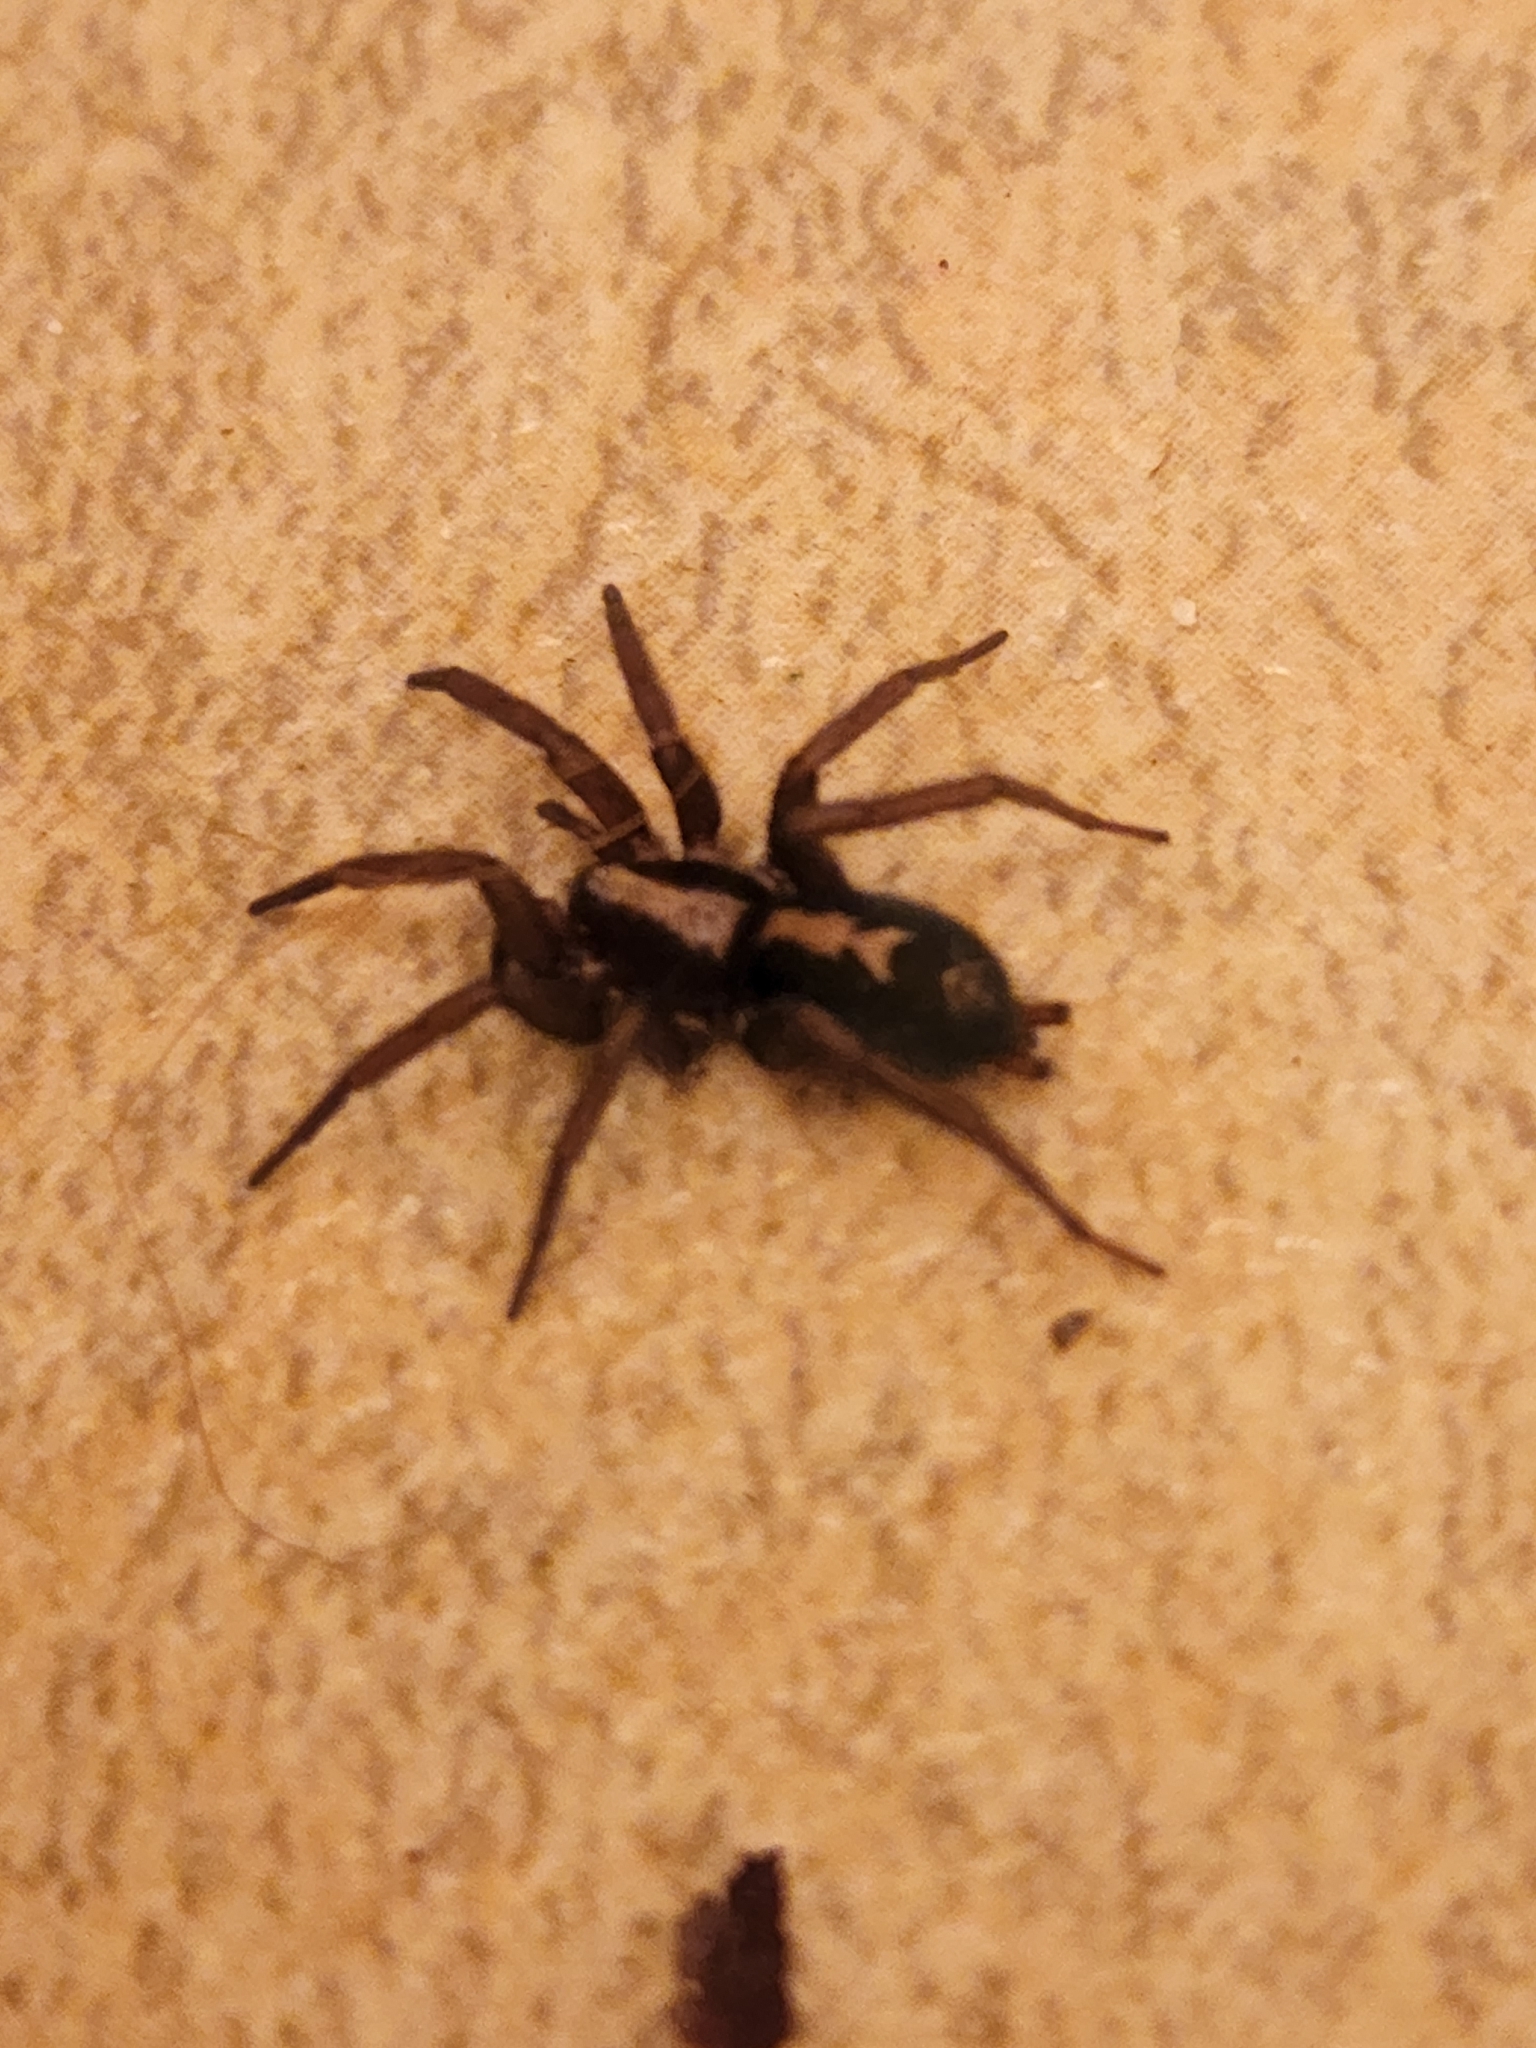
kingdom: Animalia
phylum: Arthropoda
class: Arachnida
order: Araneae
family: Gnaphosidae
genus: Herpyllus
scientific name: Herpyllus propinquus
